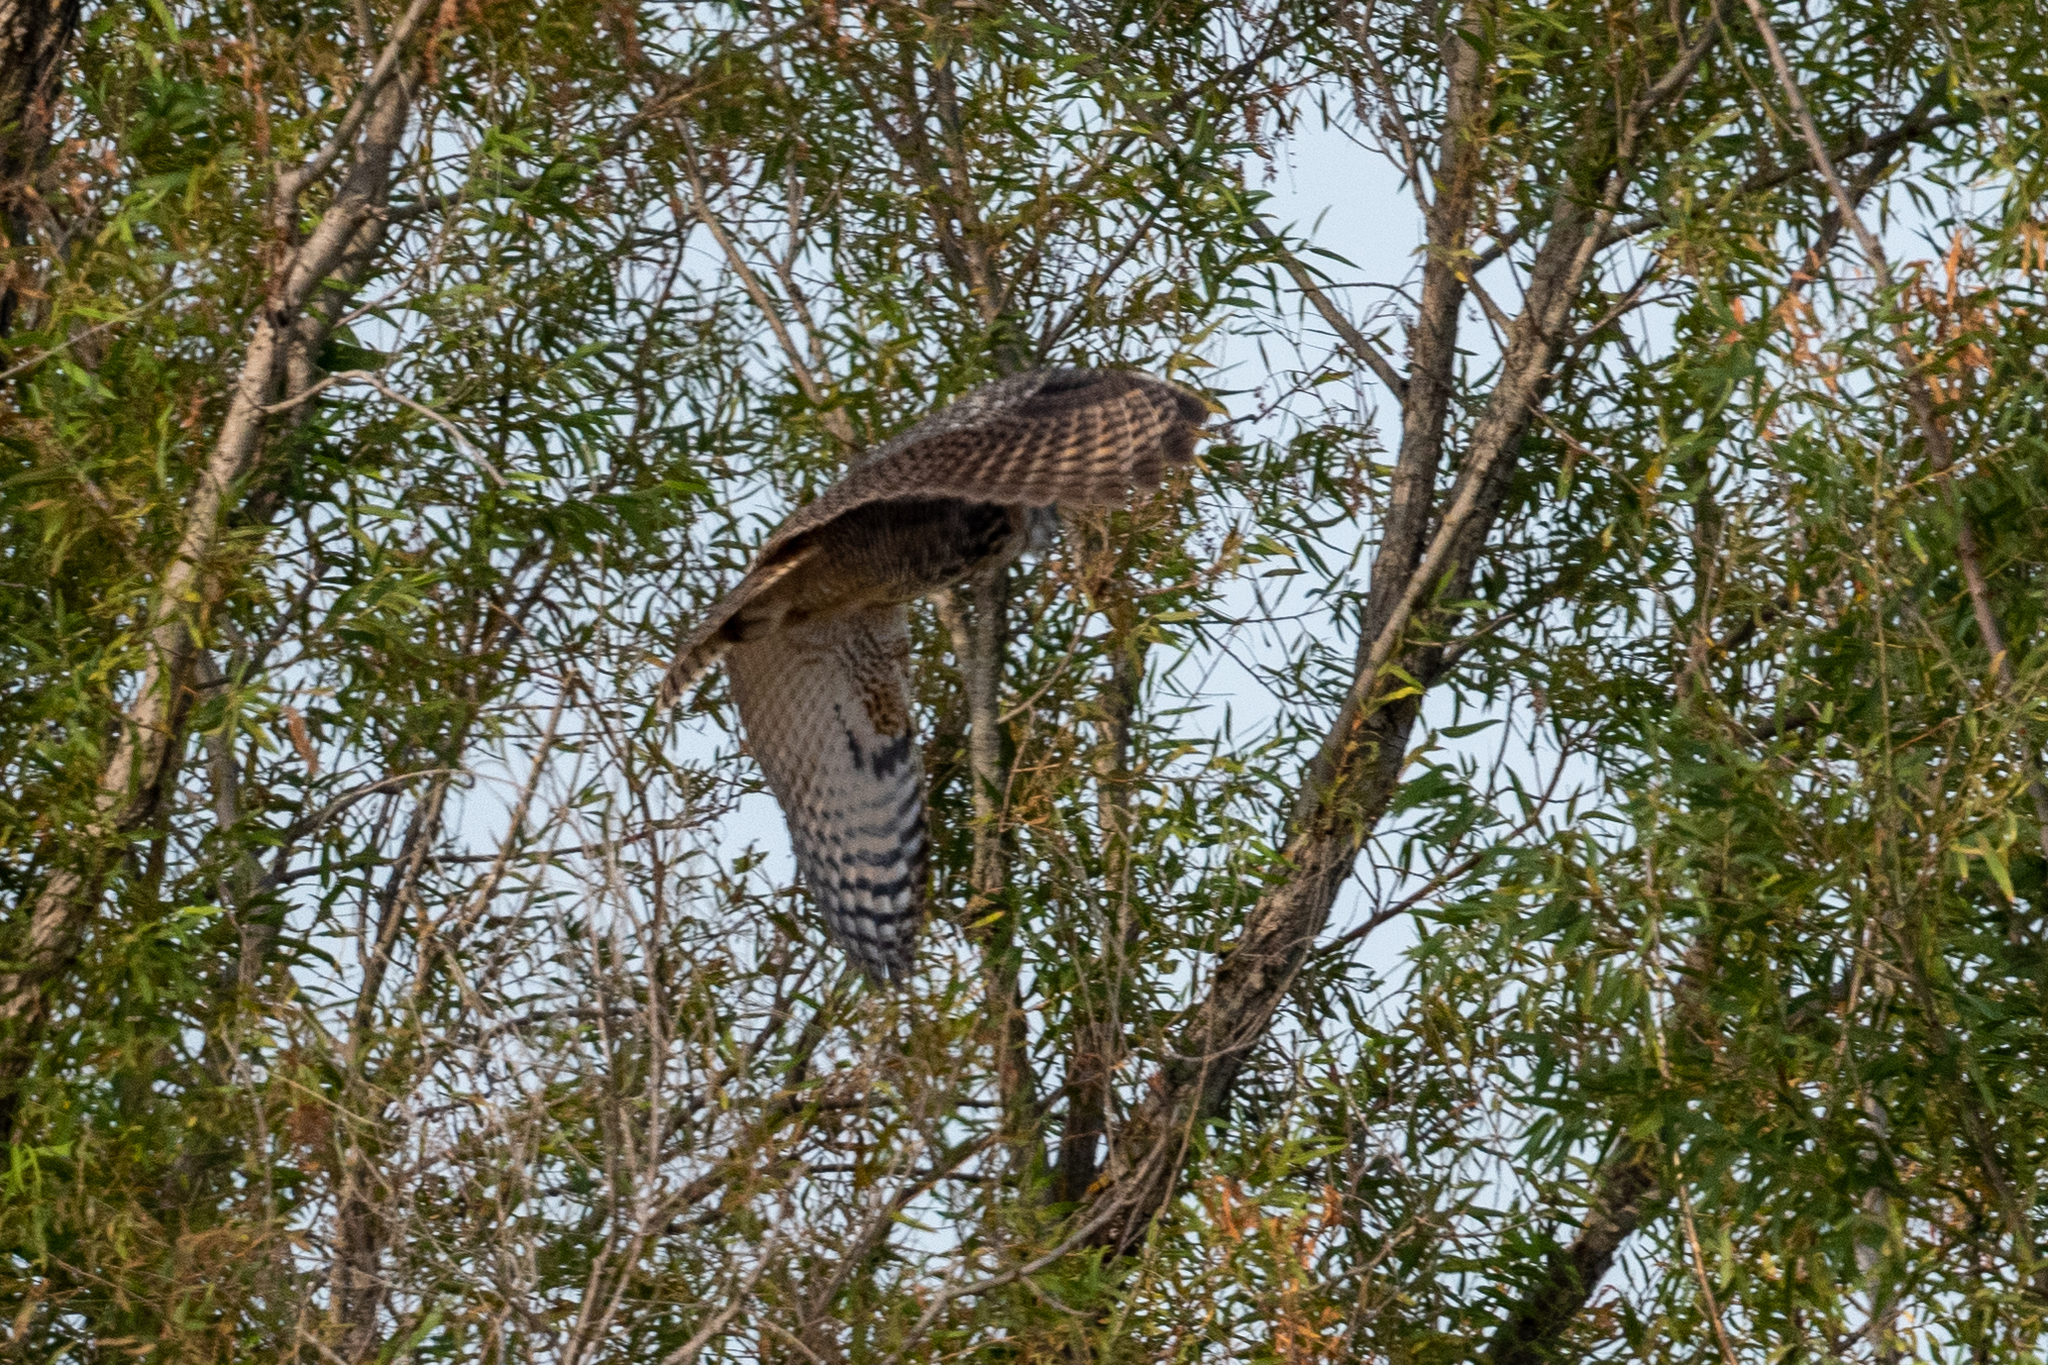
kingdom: Animalia
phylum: Chordata
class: Aves
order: Strigiformes
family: Strigidae
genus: Bubo
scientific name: Bubo virginianus
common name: Great horned owl
